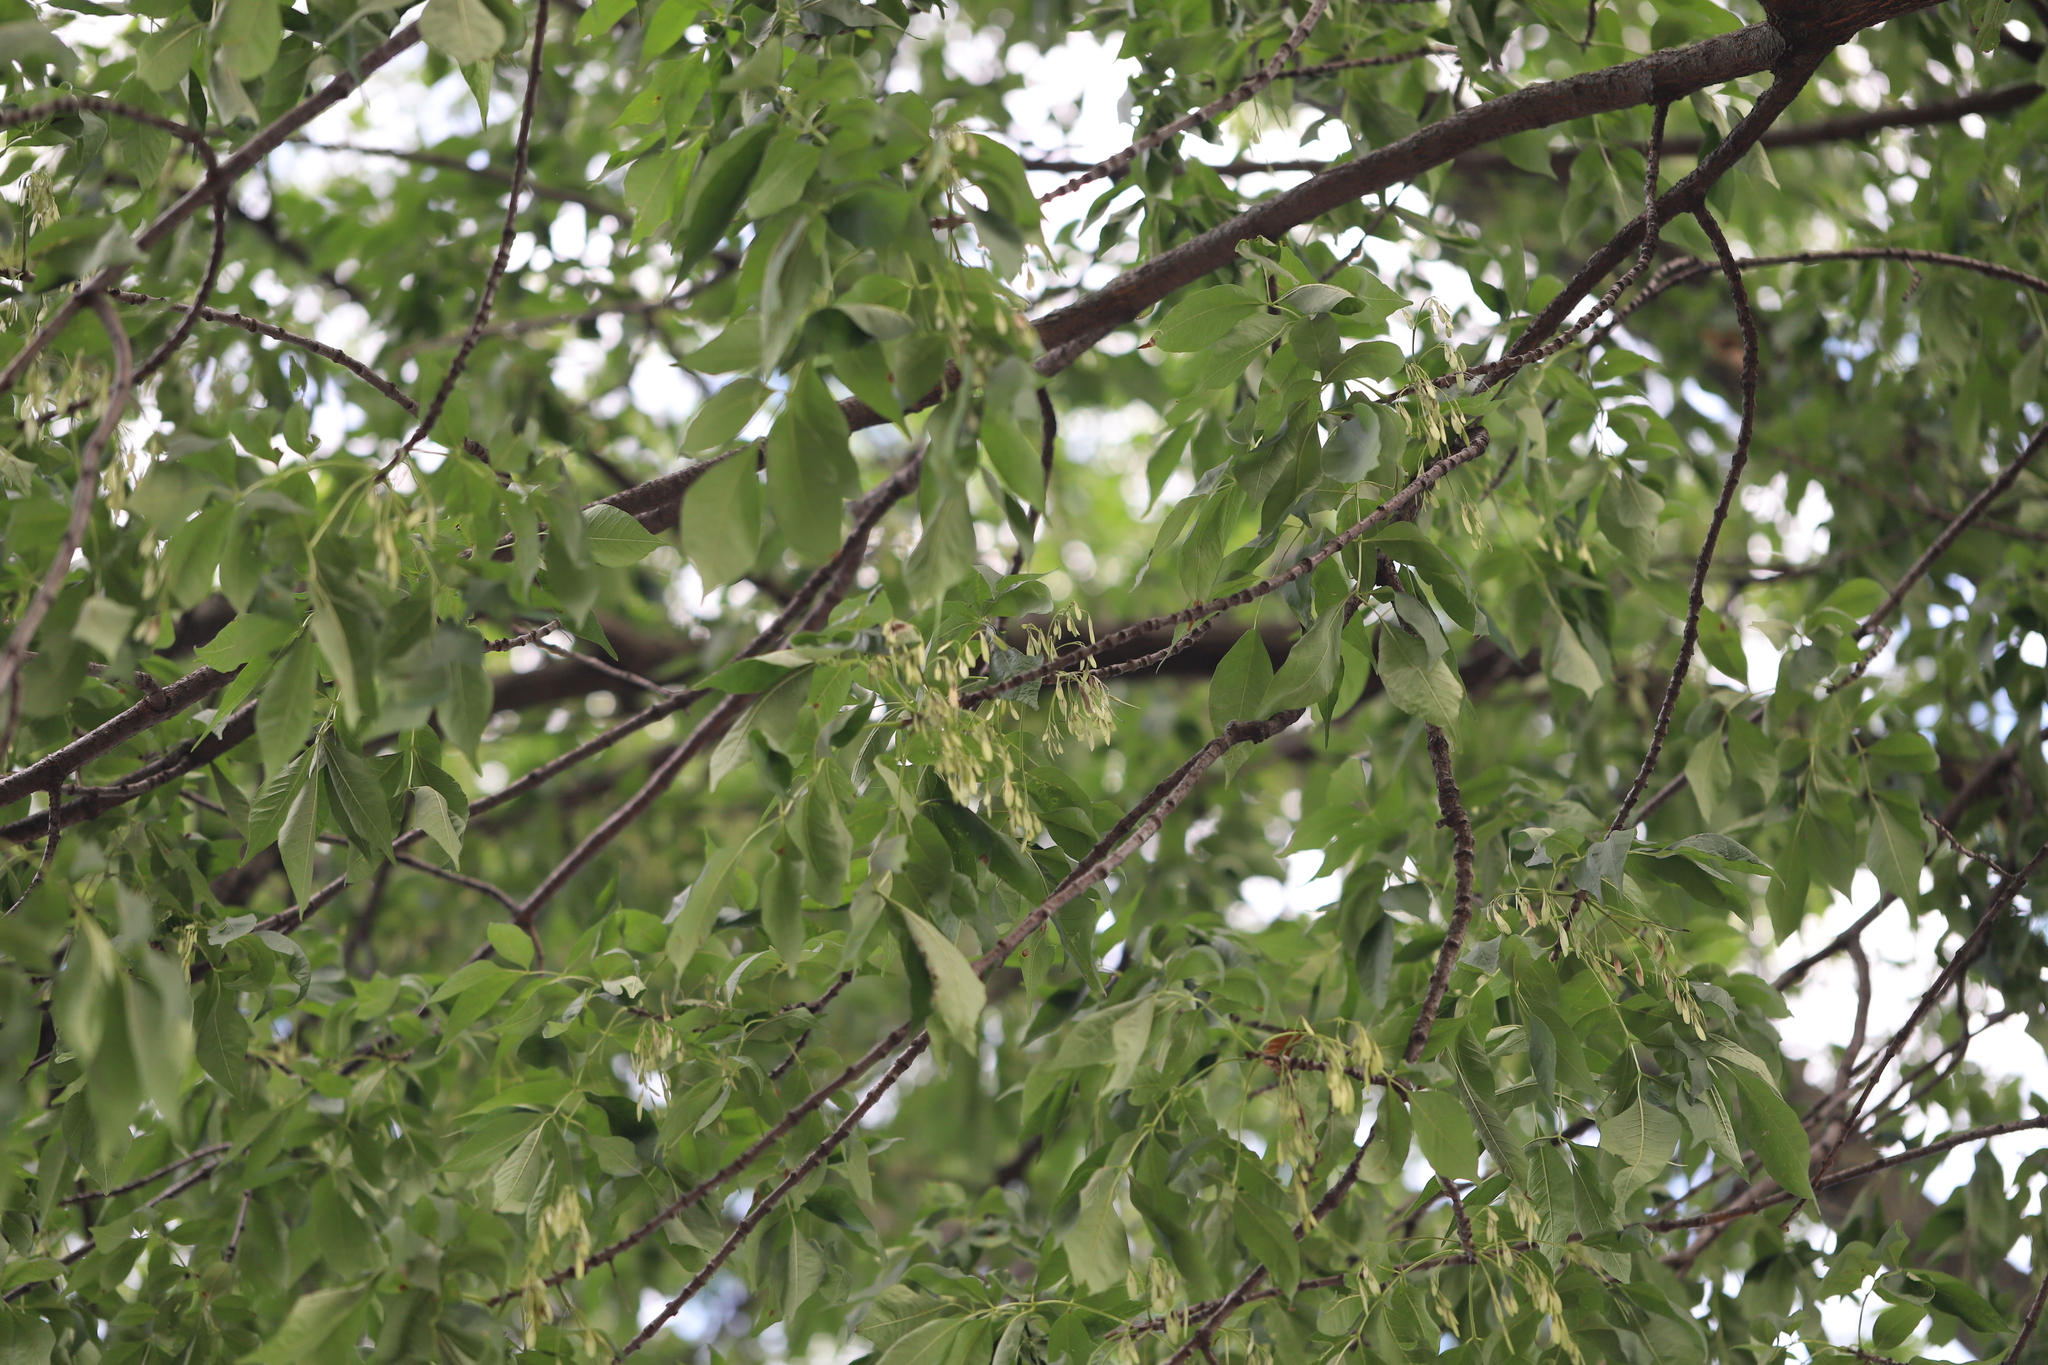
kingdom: Plantae
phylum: Tracheophyta
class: Magnoliopsida
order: Lamiales
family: Oleaceae
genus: Fraxinus
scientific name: Fraxinus americana
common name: White ash
